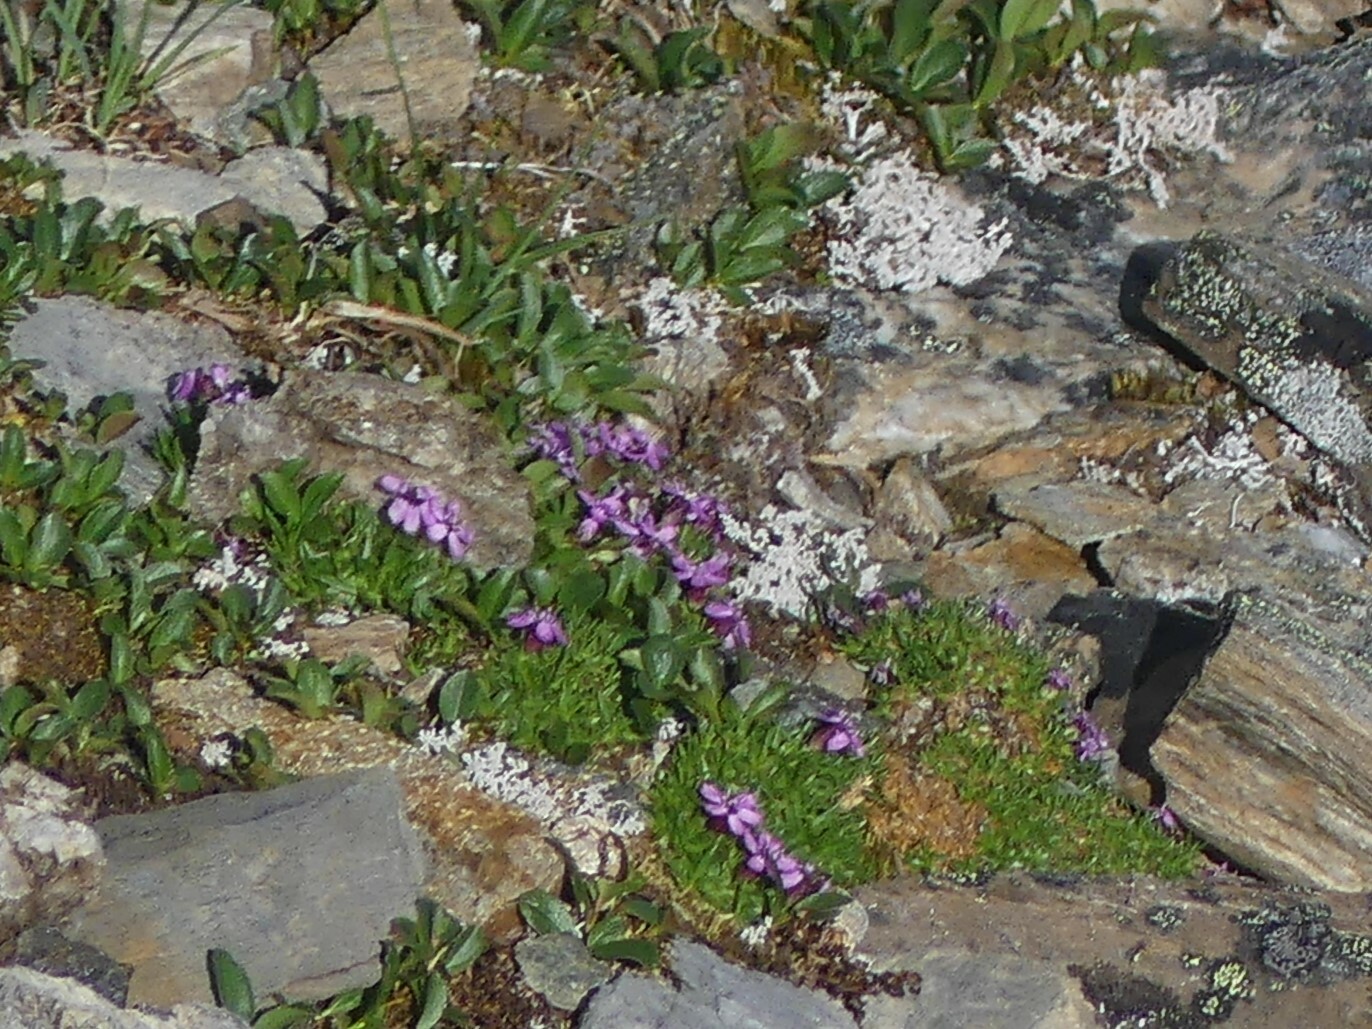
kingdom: Plantae
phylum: Tracheophyta
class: Magnoliopsida
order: Caryophyllales
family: Caryophyllaceae
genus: Silene
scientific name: Silene acaulis
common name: Moss campion
